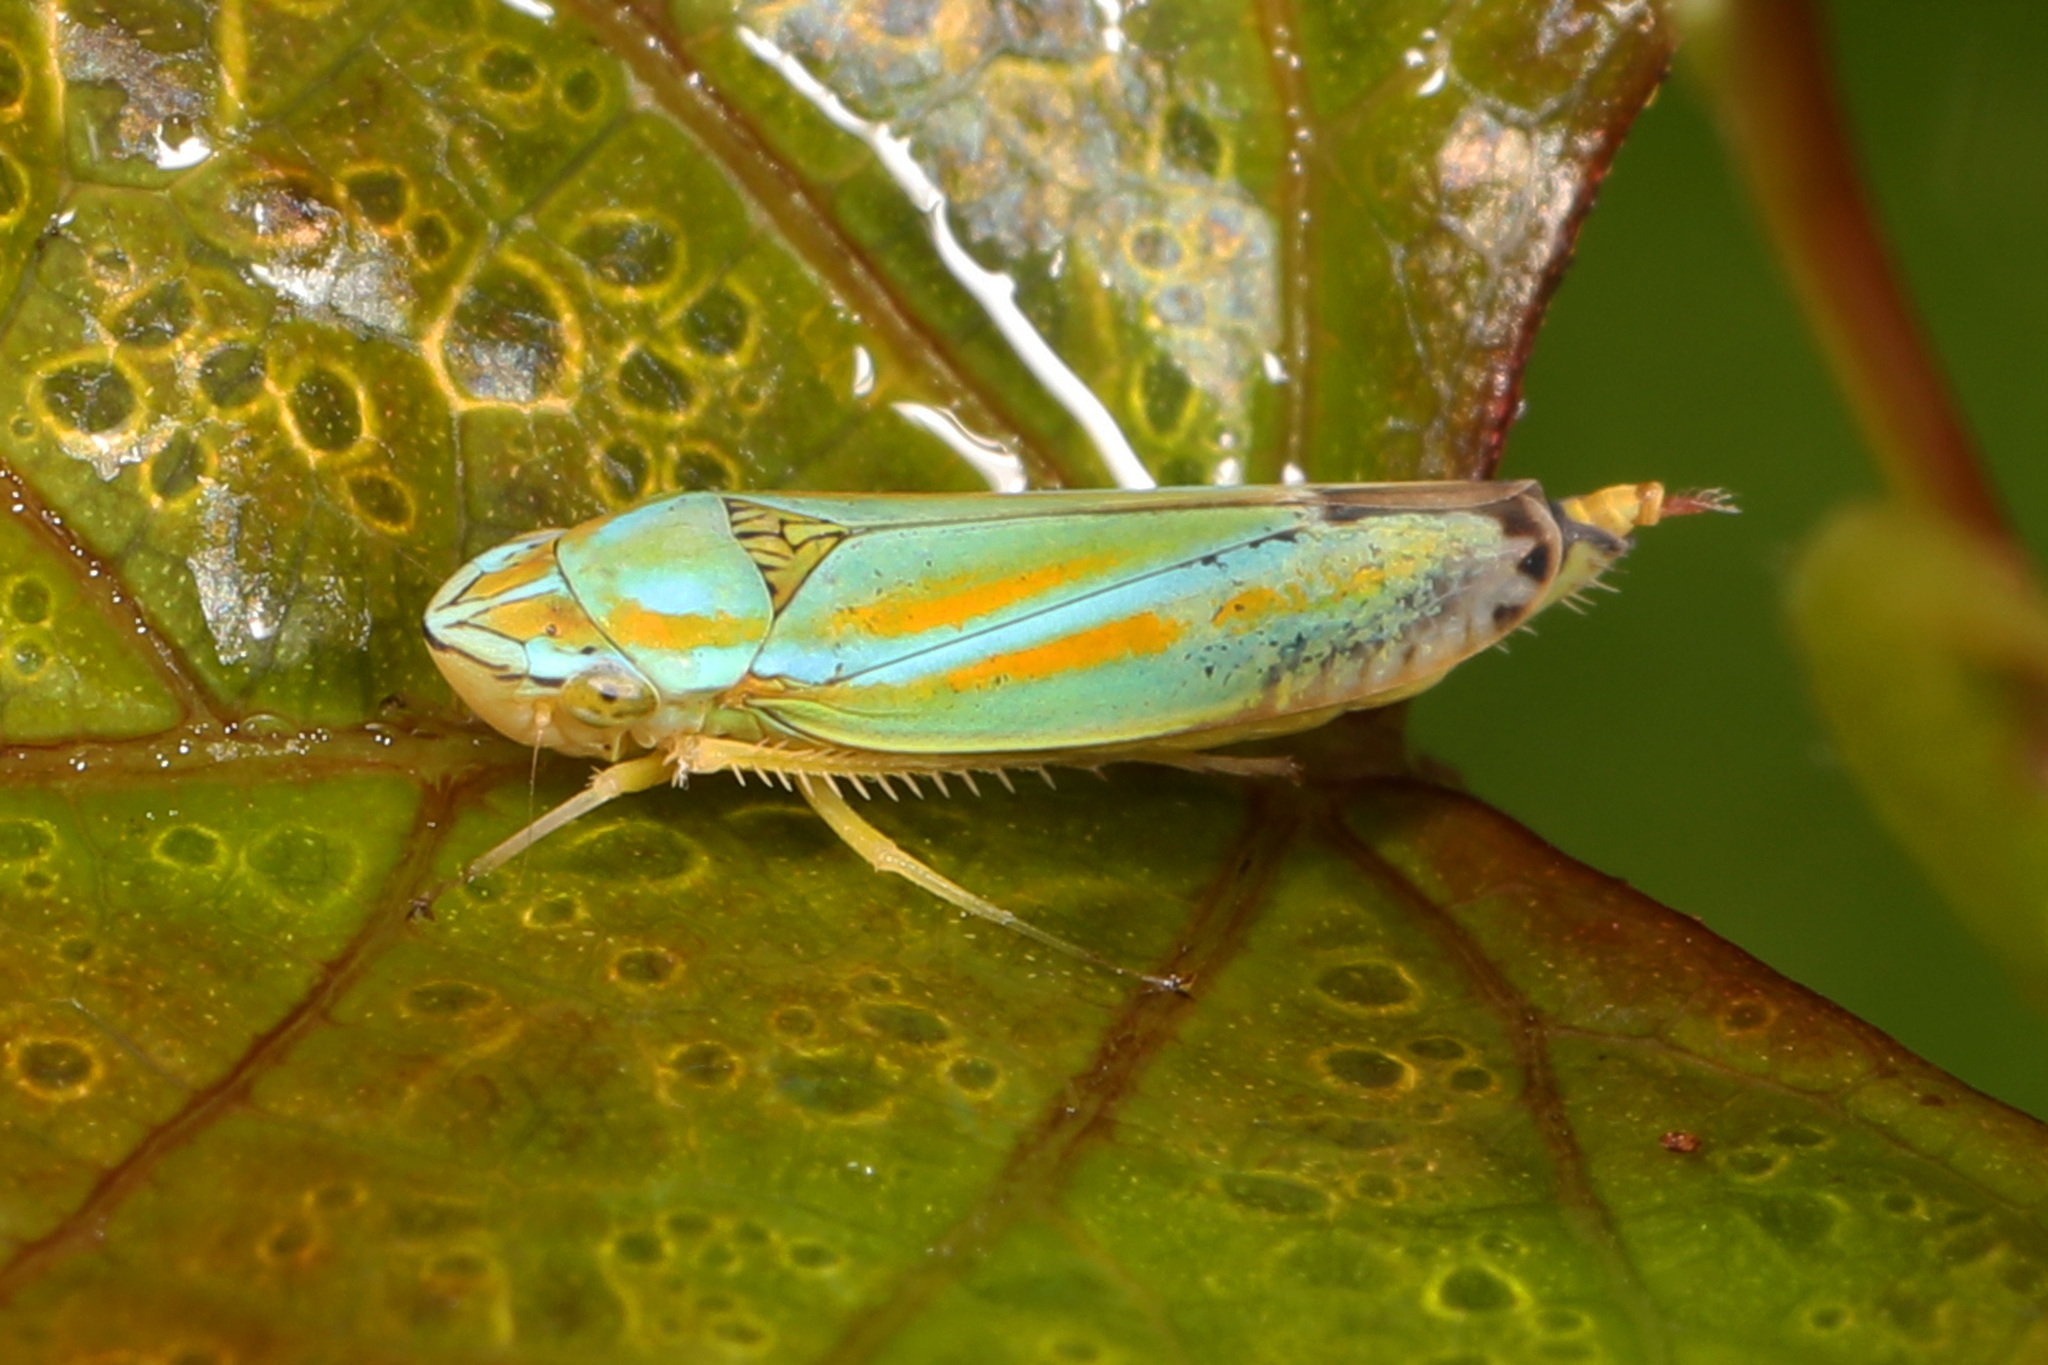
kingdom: Animalia
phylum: Arthropoda
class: Insecta
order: Hemiptera
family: Cicadellidae
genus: Graphocephala
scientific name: Graphocephala versuta
